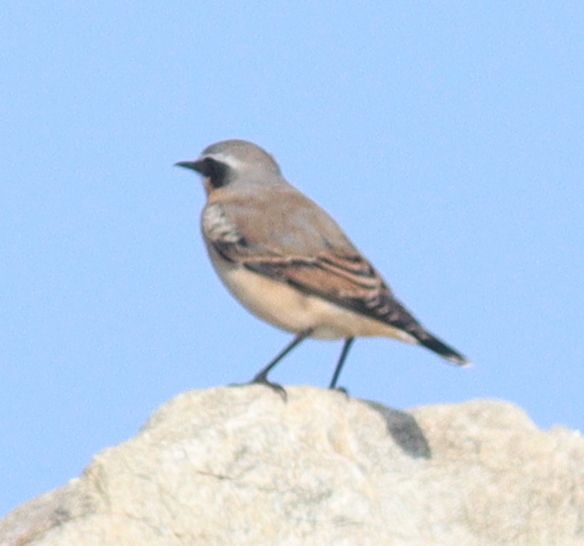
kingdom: Animalia
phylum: Chordata
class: Aves
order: Passeriformes
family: Muscicapidae
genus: Oenanthe
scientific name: Oenanthe oenanthe
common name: Northern wheatear
